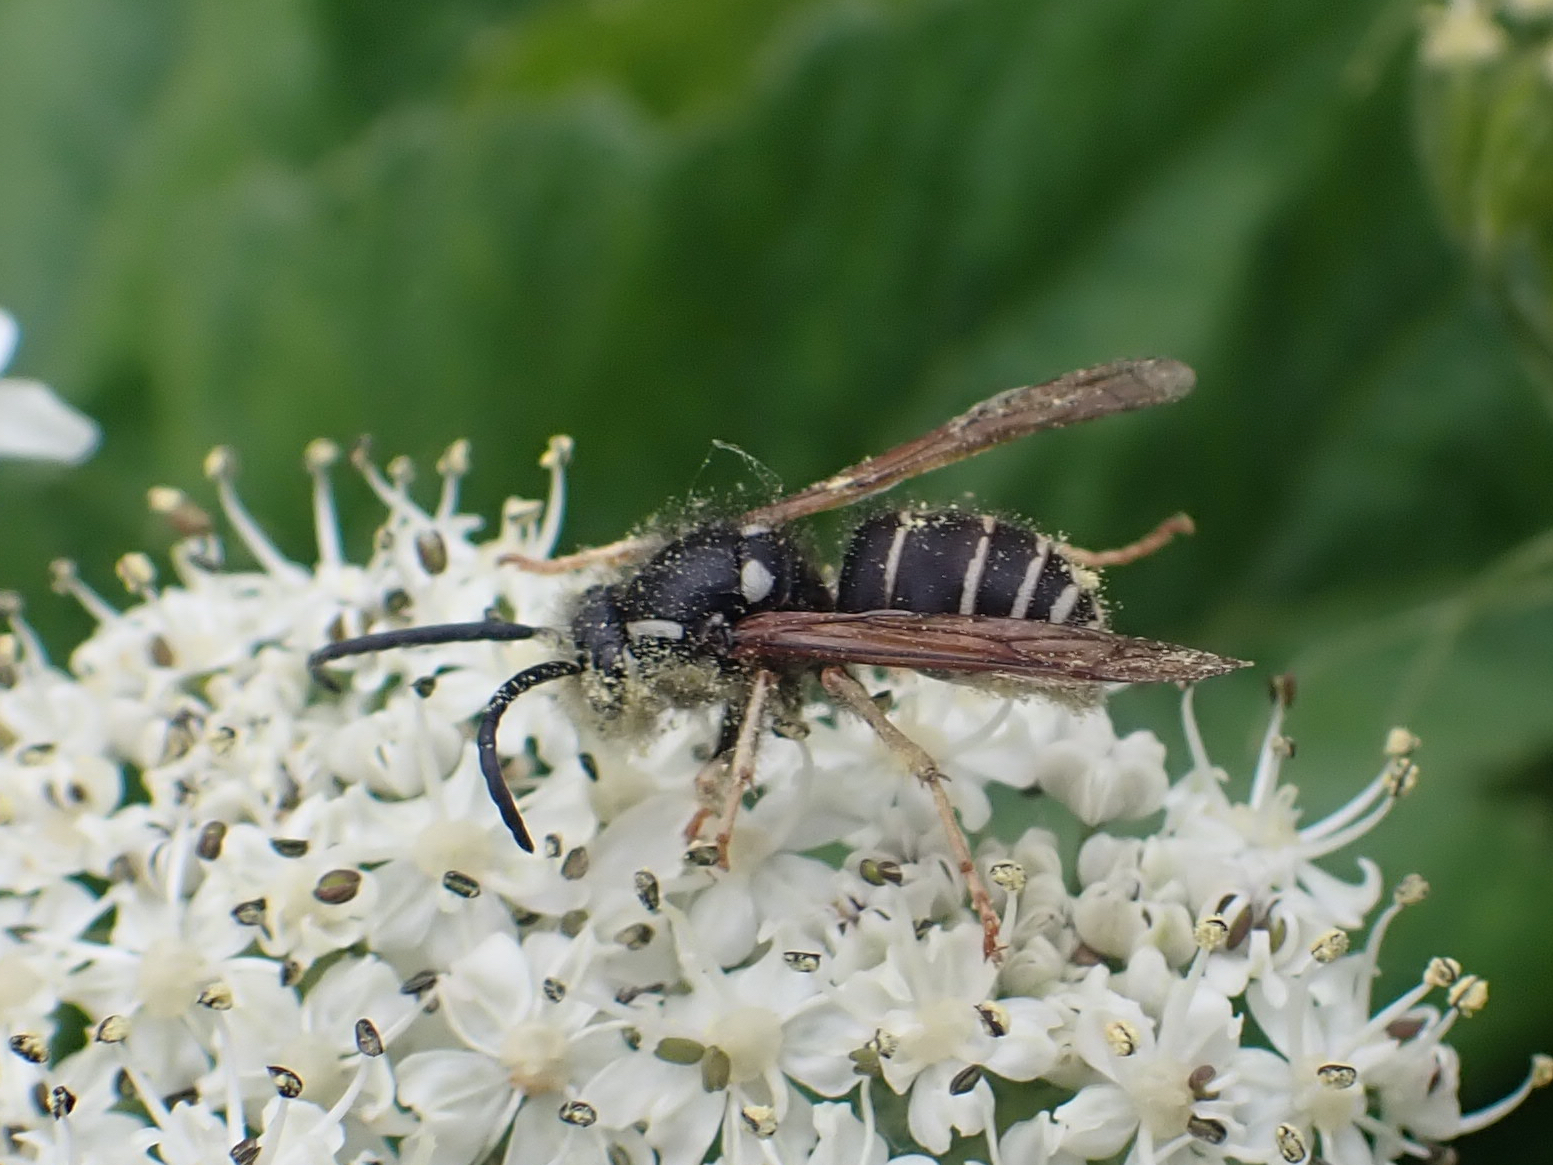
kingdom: Animalia
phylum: Arthropoda
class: Insecta
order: Hymenoptera
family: Vespidae
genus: Dolichovespula
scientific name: Dolichovespula adulterina
